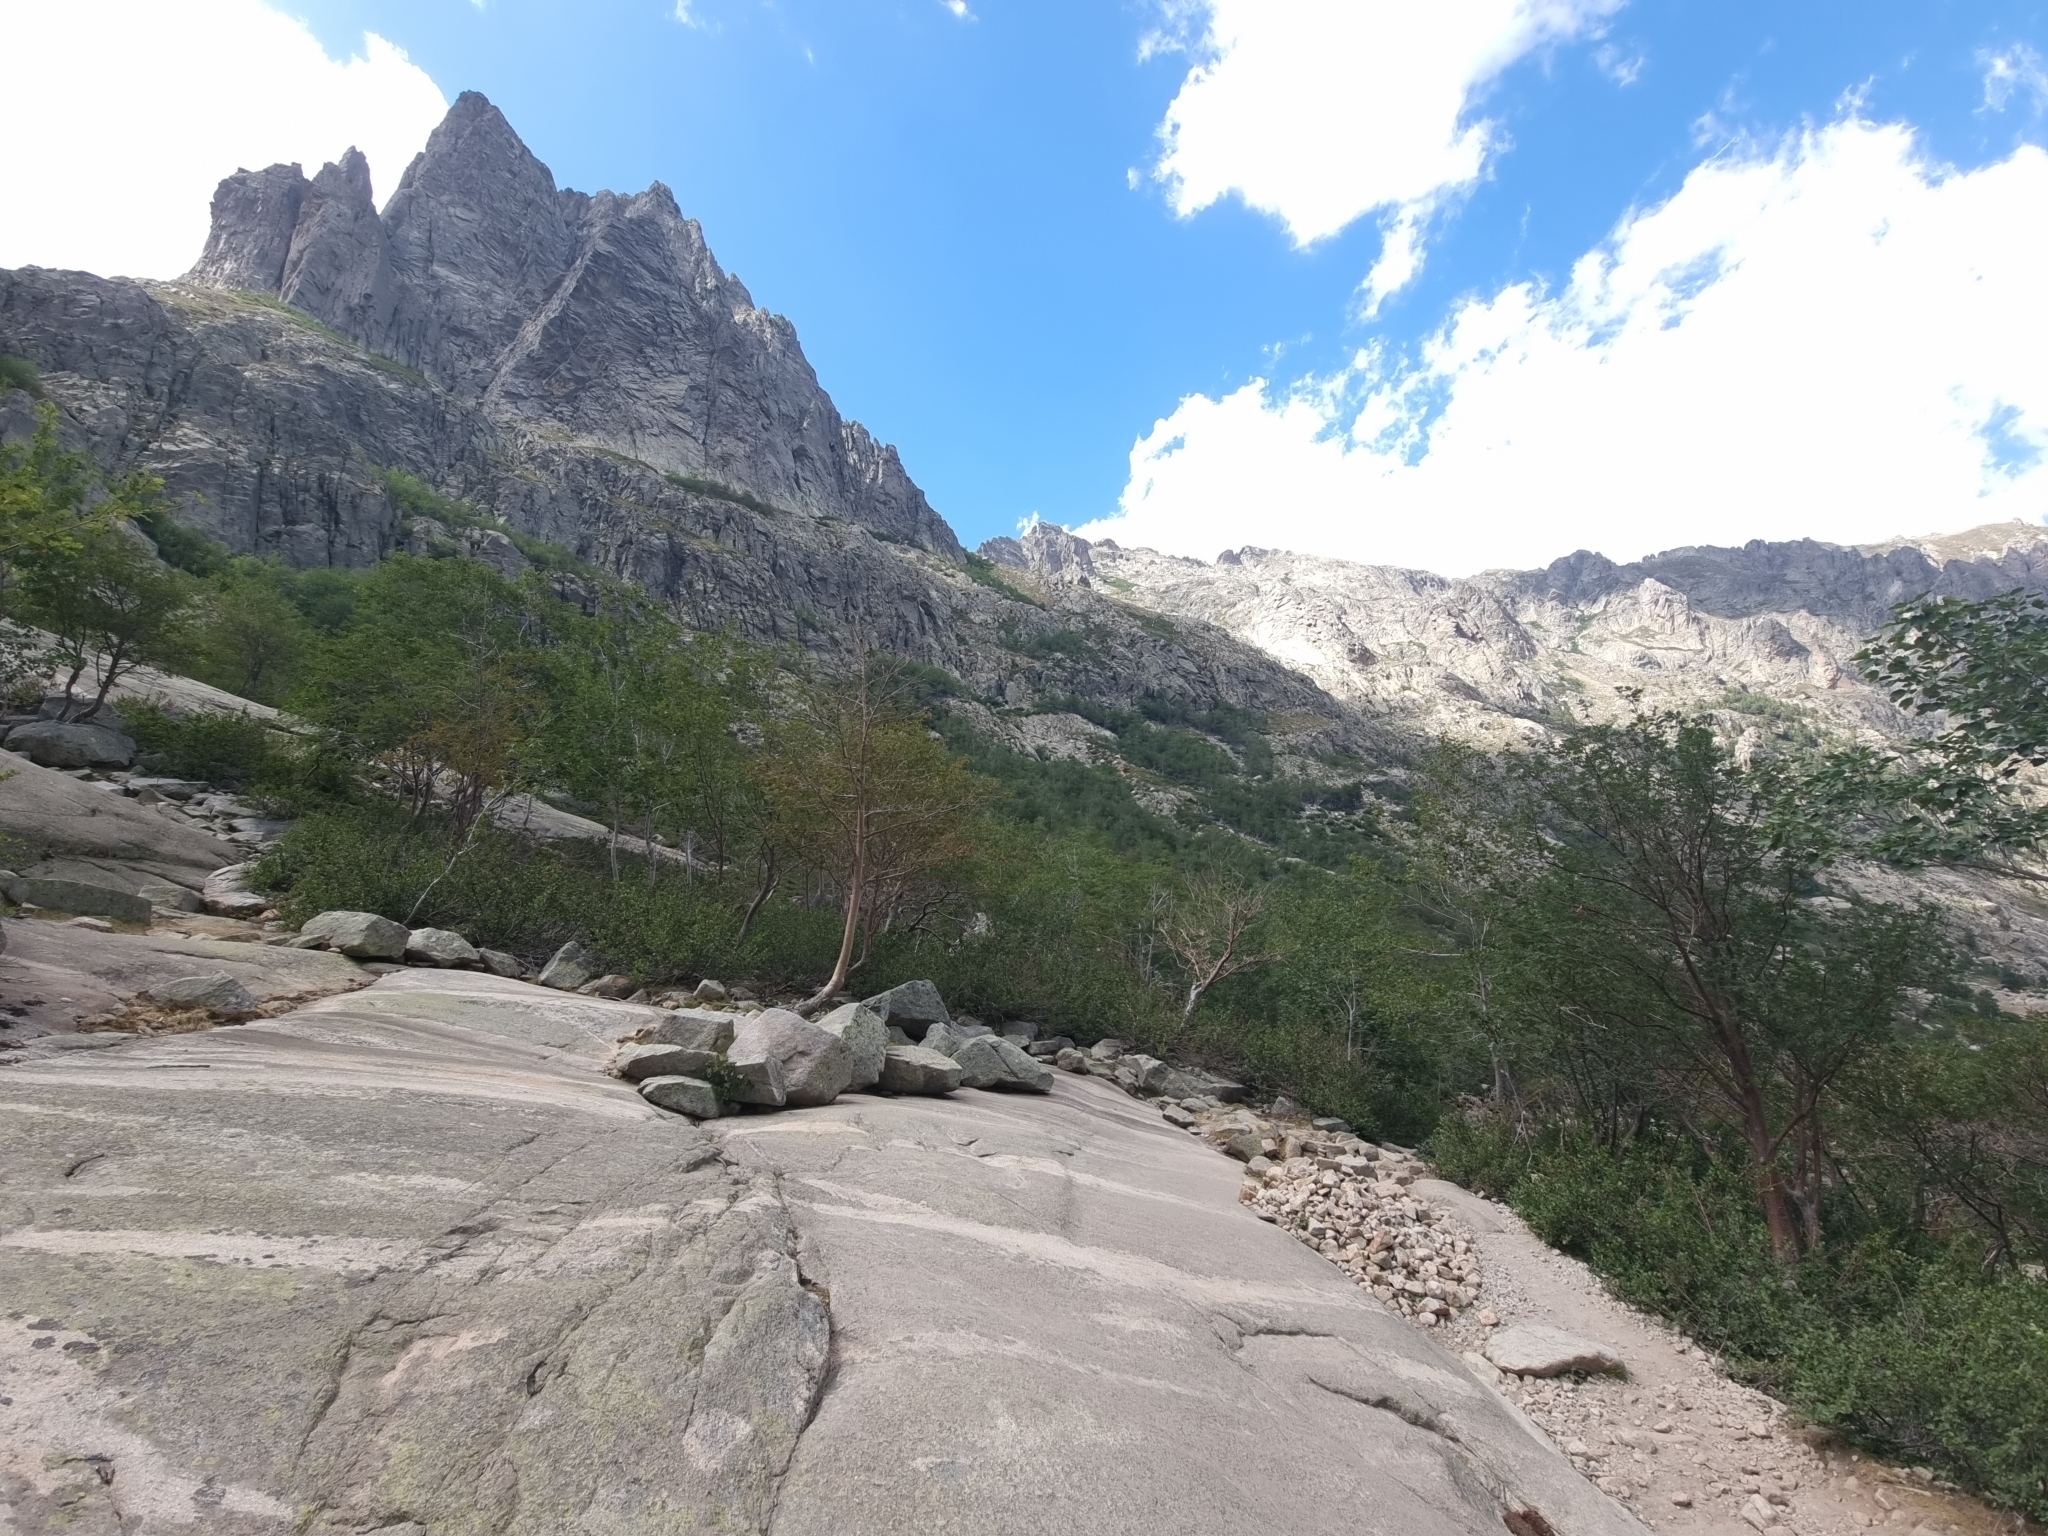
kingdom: Animalia
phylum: Chordata
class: Squamata
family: Colubridae
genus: Hierophis
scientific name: Hierophis viridiflavus
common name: Green whip snake
